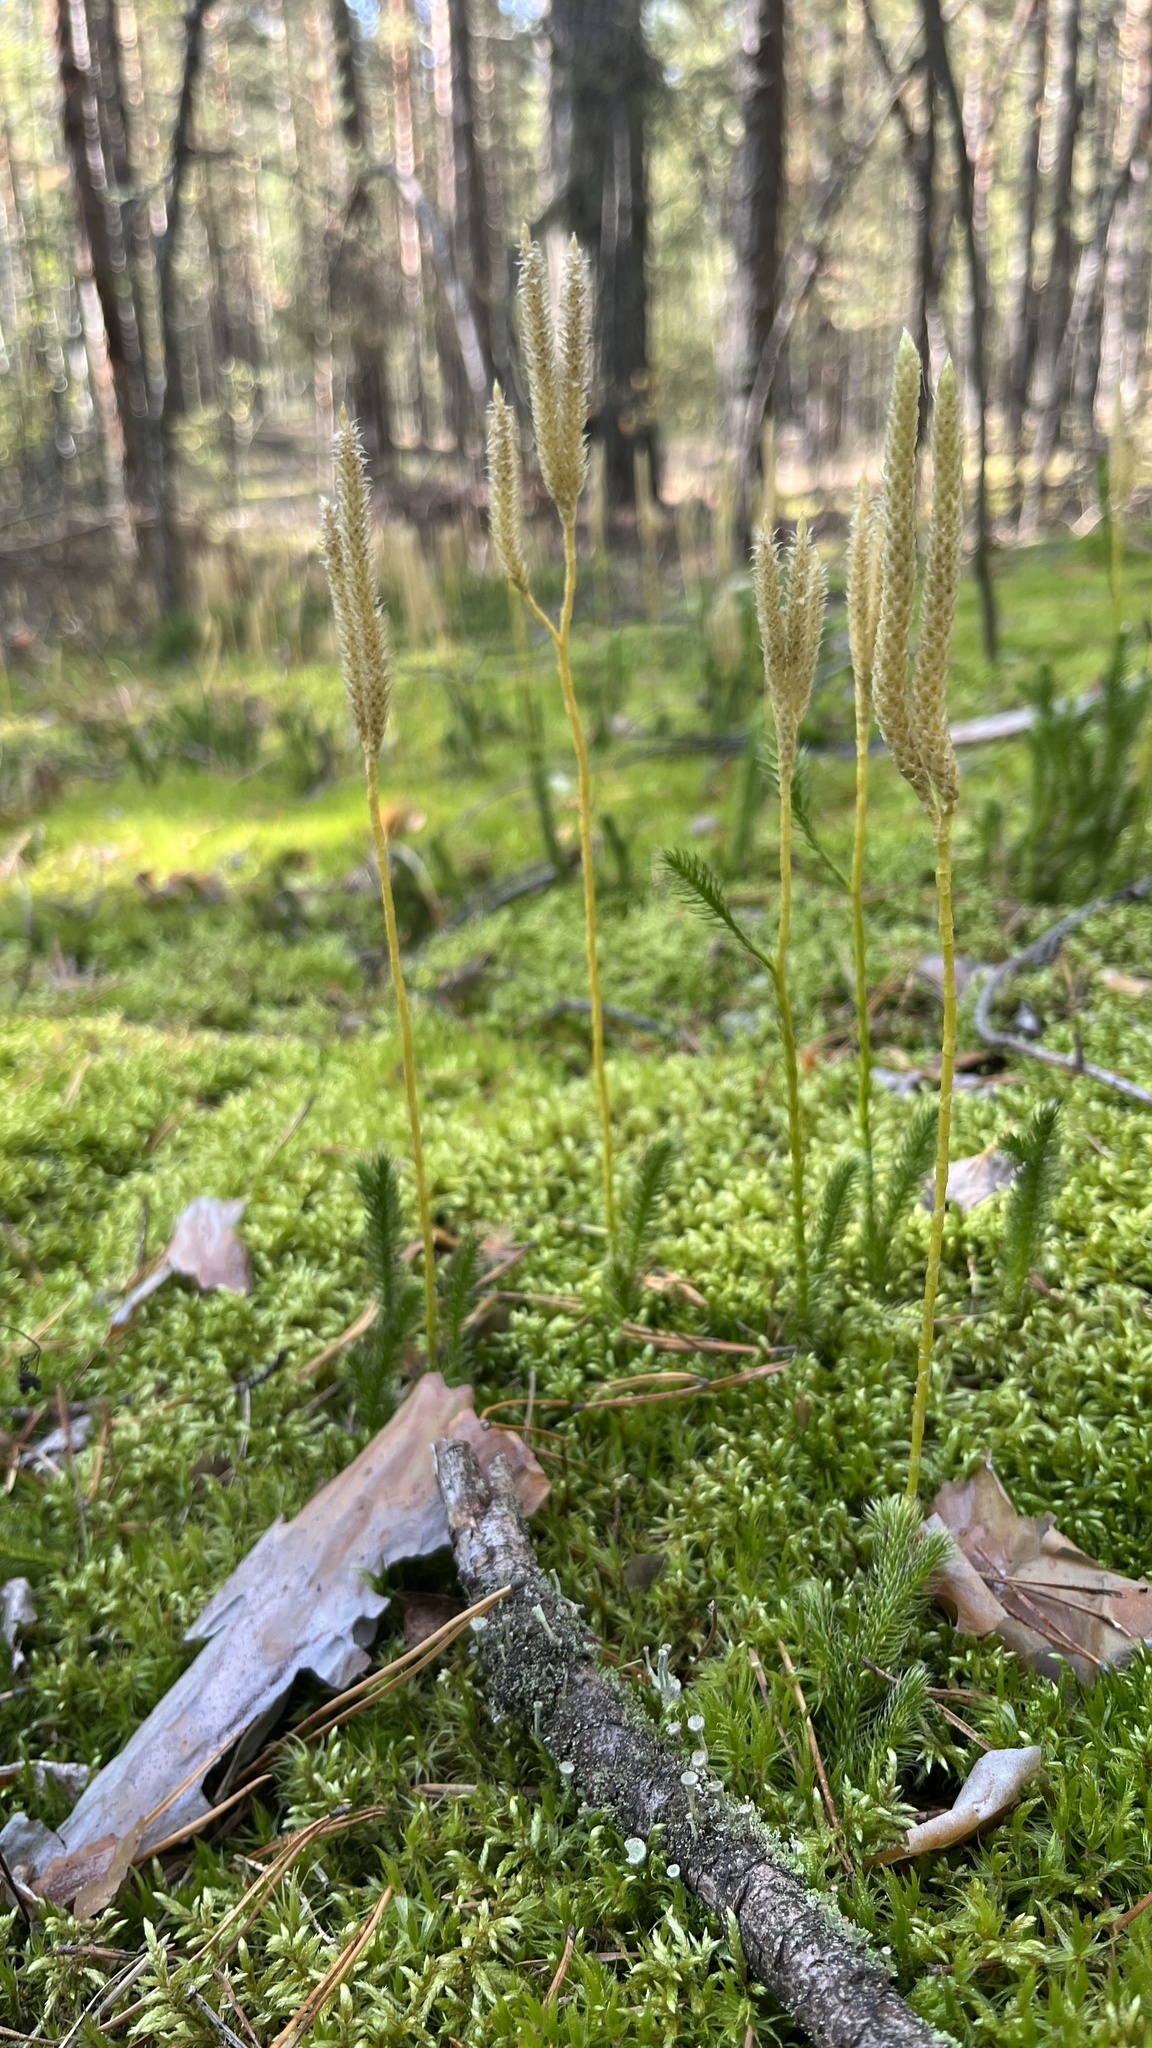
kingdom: Plantae
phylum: Tracheophyta
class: Lycopodiopsida
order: Lycopodiales
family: Lycopodiaceae
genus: Lycopodium
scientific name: Lycopodium clavatum
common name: Stag's-horn clubmoss
